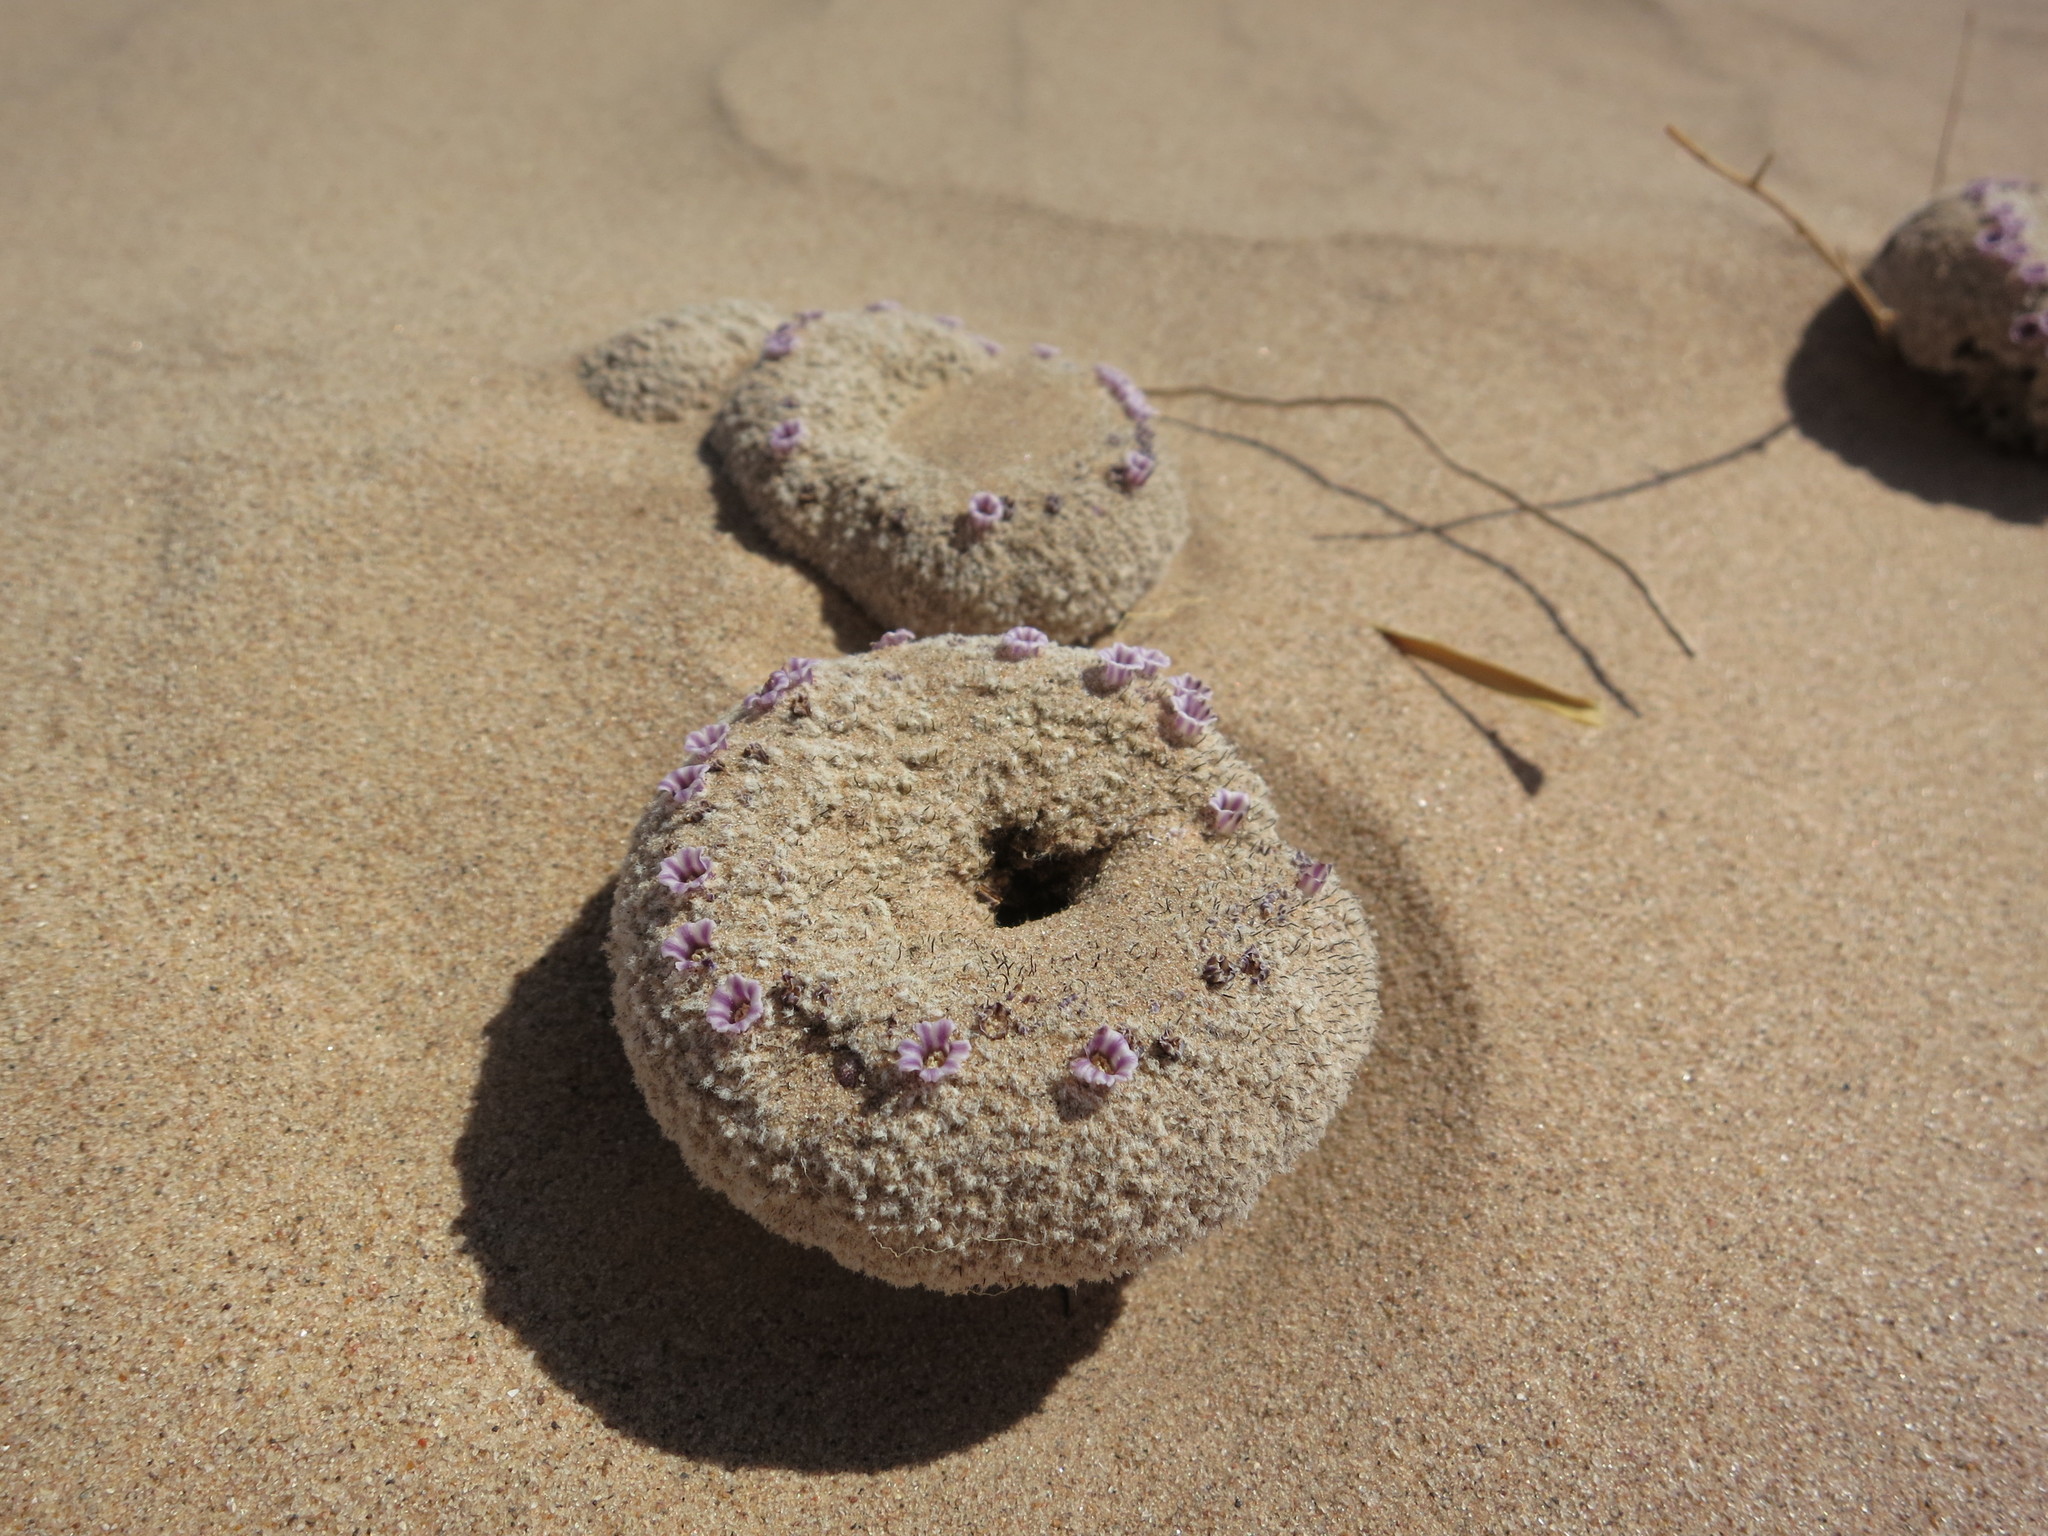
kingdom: Plantae
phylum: Tracheophyta
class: Magnoliopsida
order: Boraginales
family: Lennoaceae
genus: Pholisma
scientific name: Pholisma sonorae
